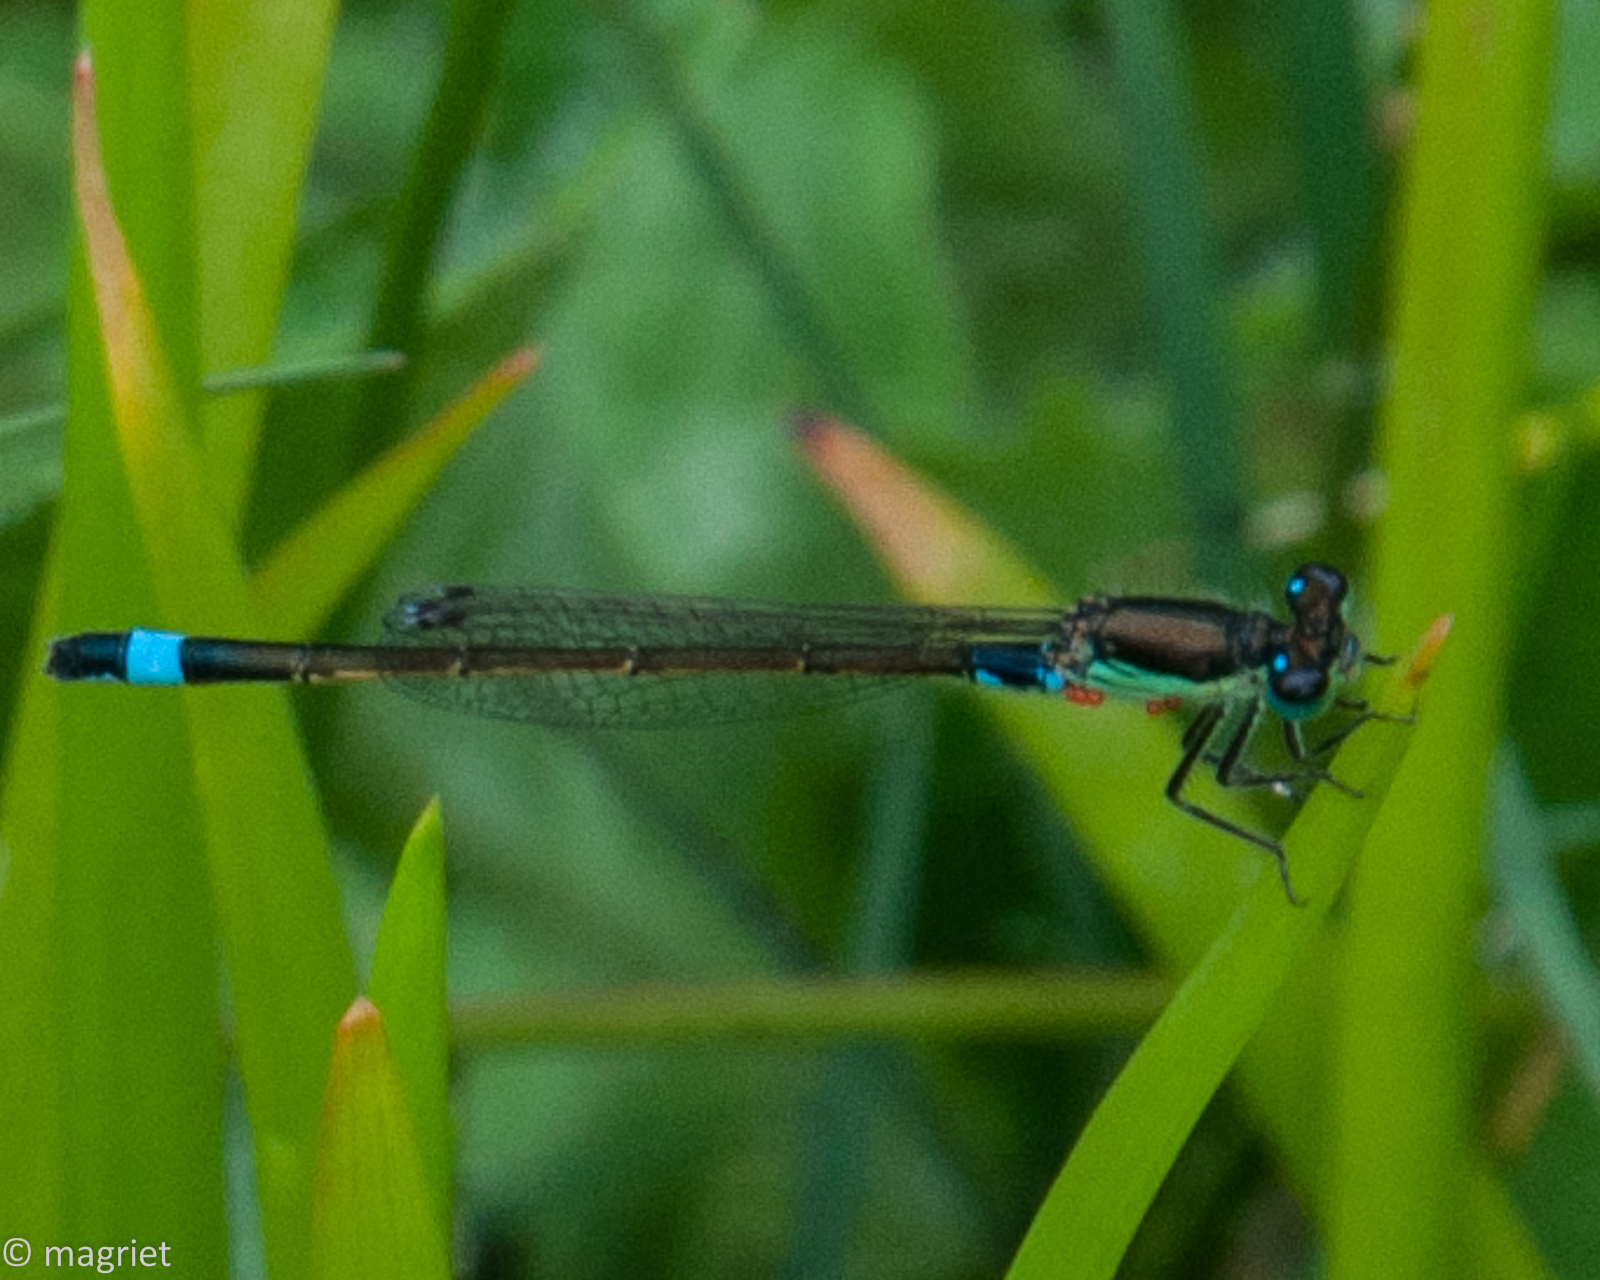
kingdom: Animalia
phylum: Arthropoda
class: Insecta
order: Odonata
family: Coenagrionidae
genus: Ischnura
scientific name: Ischnura senegalensis
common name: Tropical bluetail
